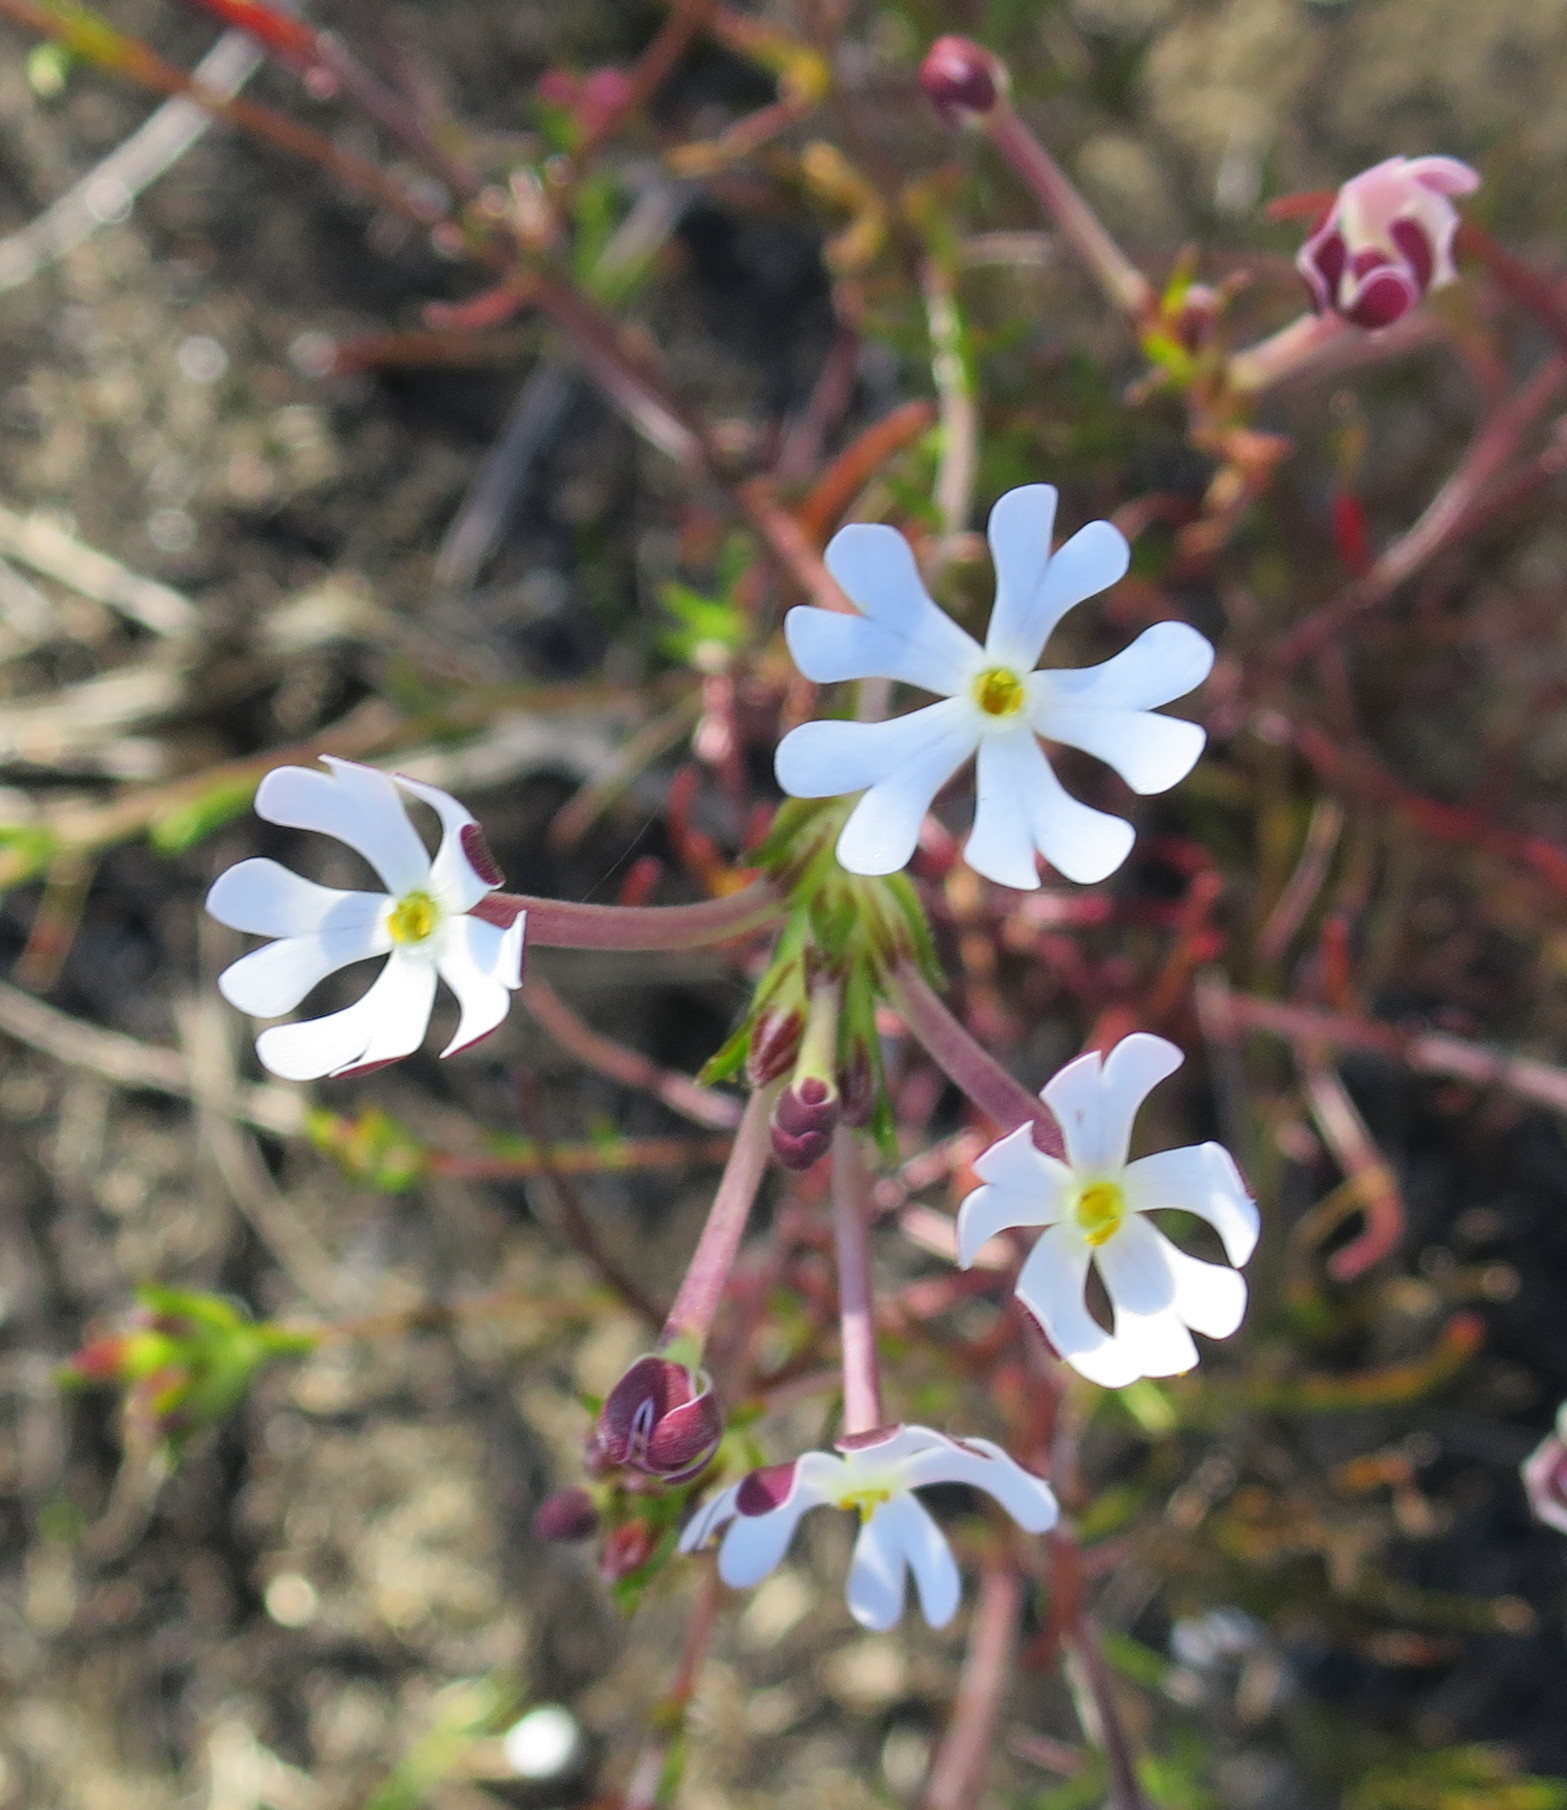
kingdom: Plantae
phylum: Tracheophyta
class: Magnoliopsida
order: Lamiales
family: Scrophulariaceae
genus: Zaluzianskya
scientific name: Zaluzianskya capensis
